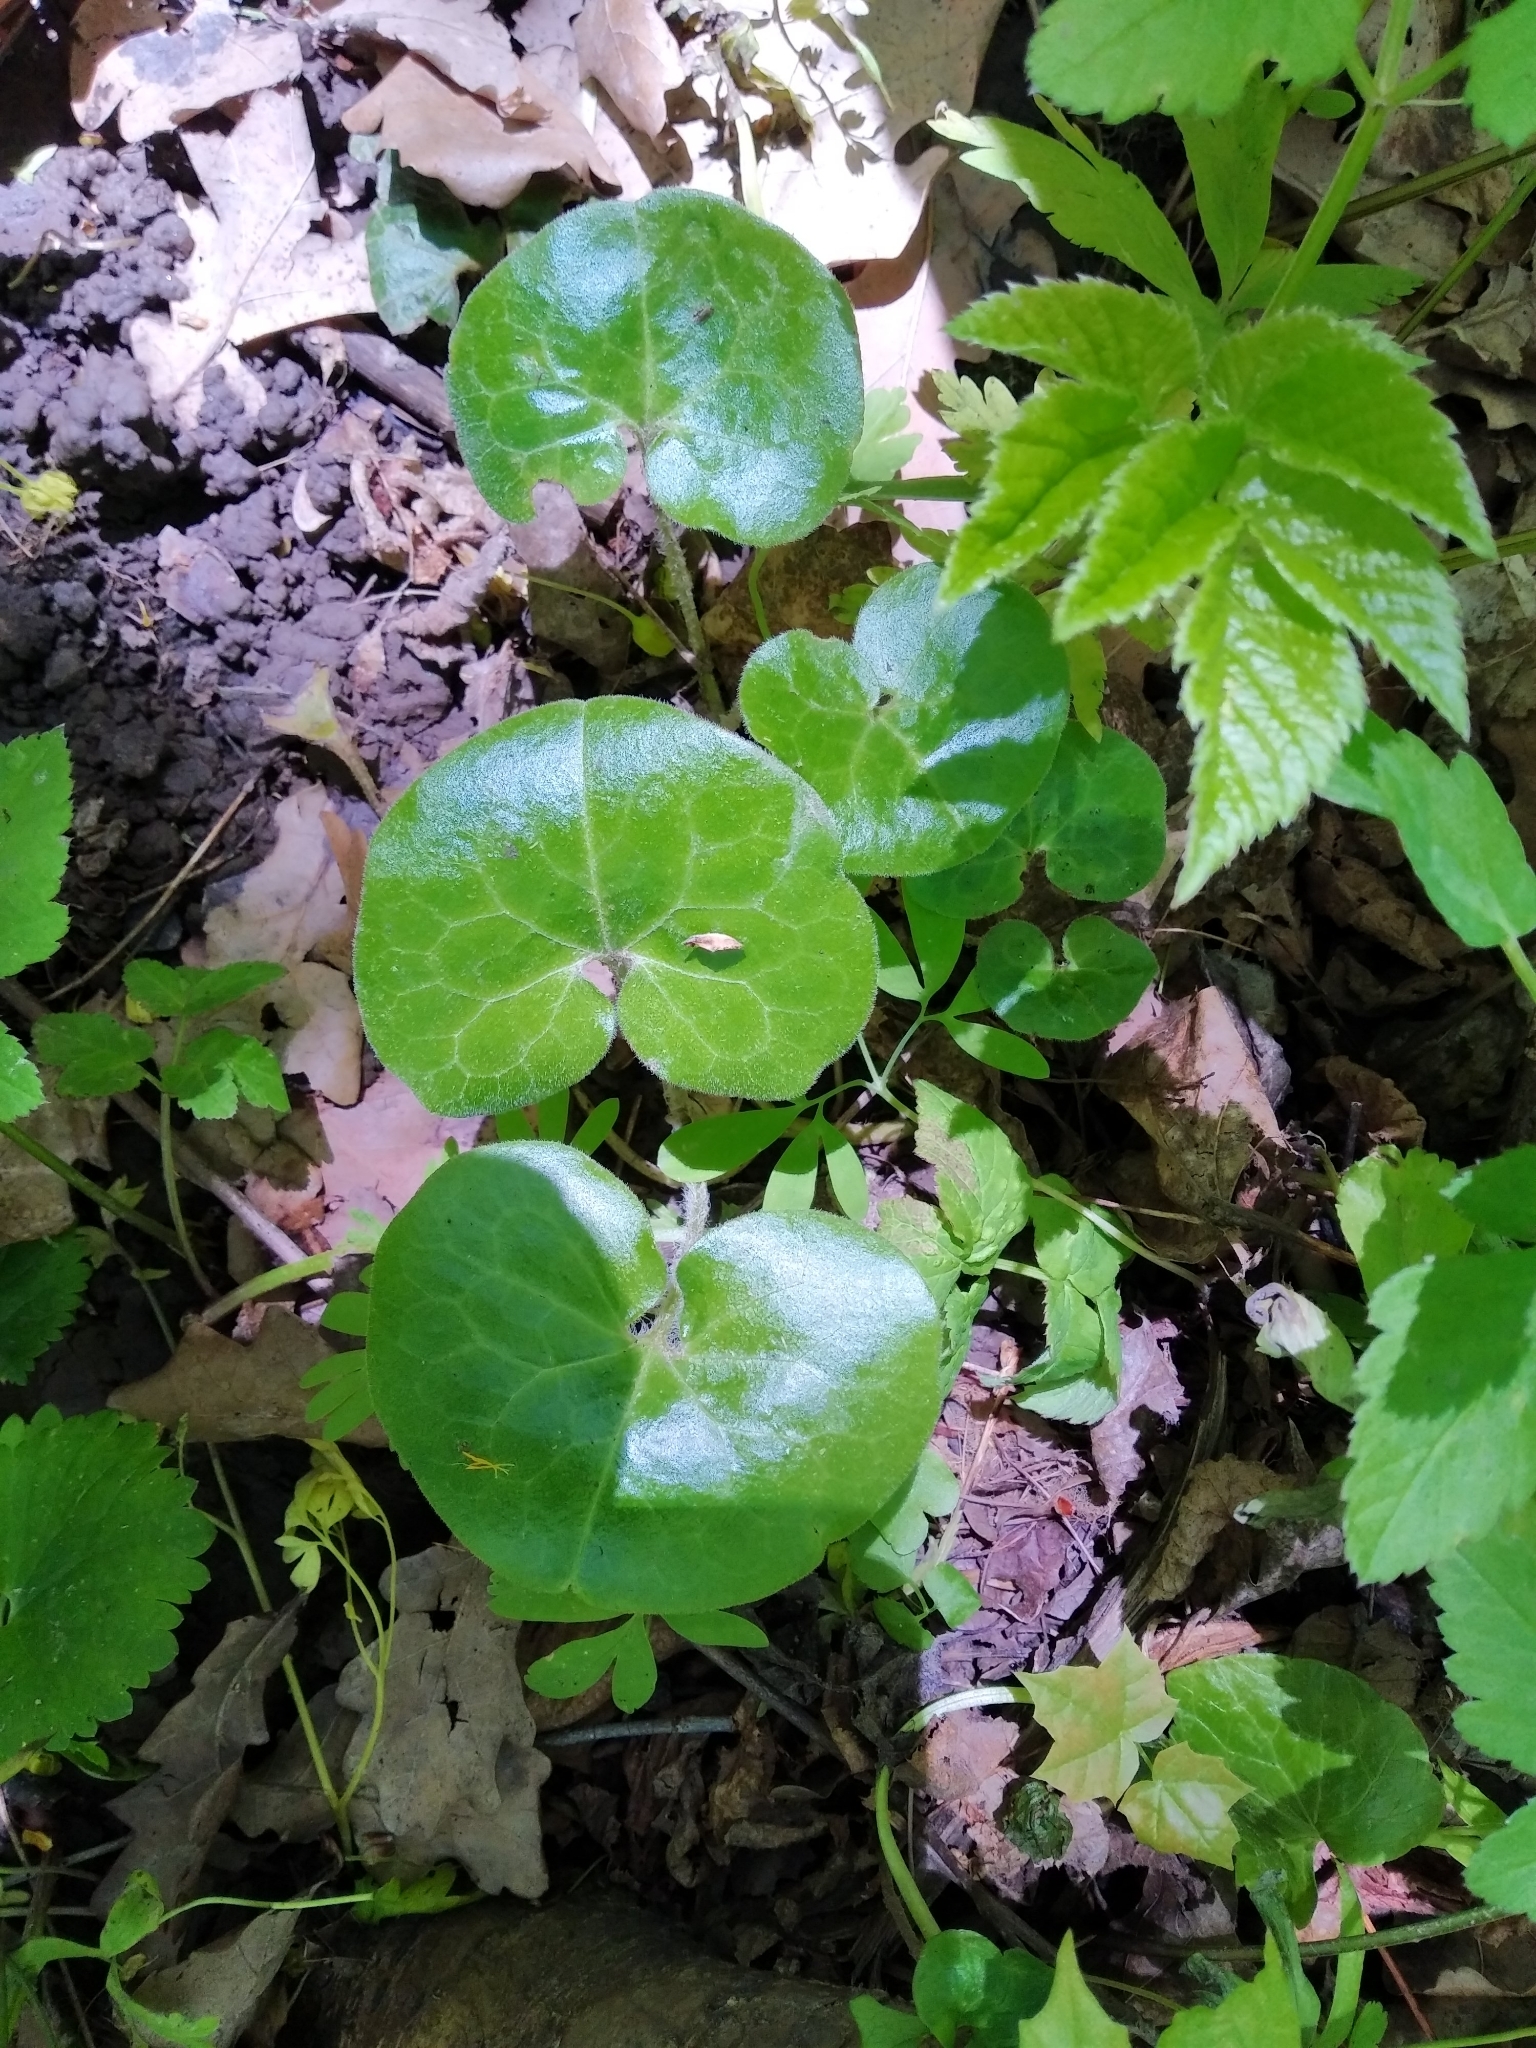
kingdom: Plantae
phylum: Tracheophyta
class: Magnoliopsida
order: Piperales
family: Aristolochiaceae
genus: Asarum
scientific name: Asarum europaeum
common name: Asarabacca
